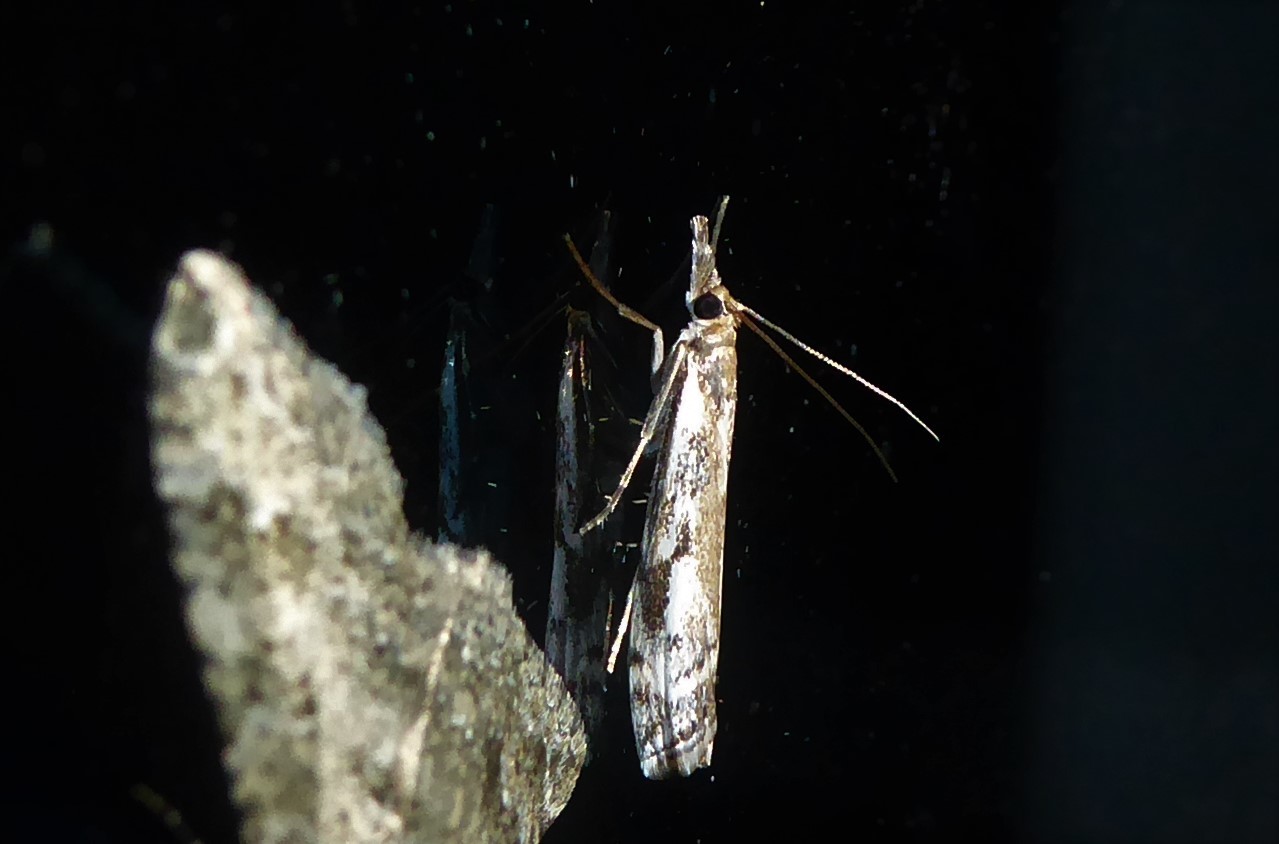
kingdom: Animalia
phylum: Arthropoda
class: Insecta
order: Lepidoptera
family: Crambidae
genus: Orocrambus
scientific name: Orocrambus vulgaris
